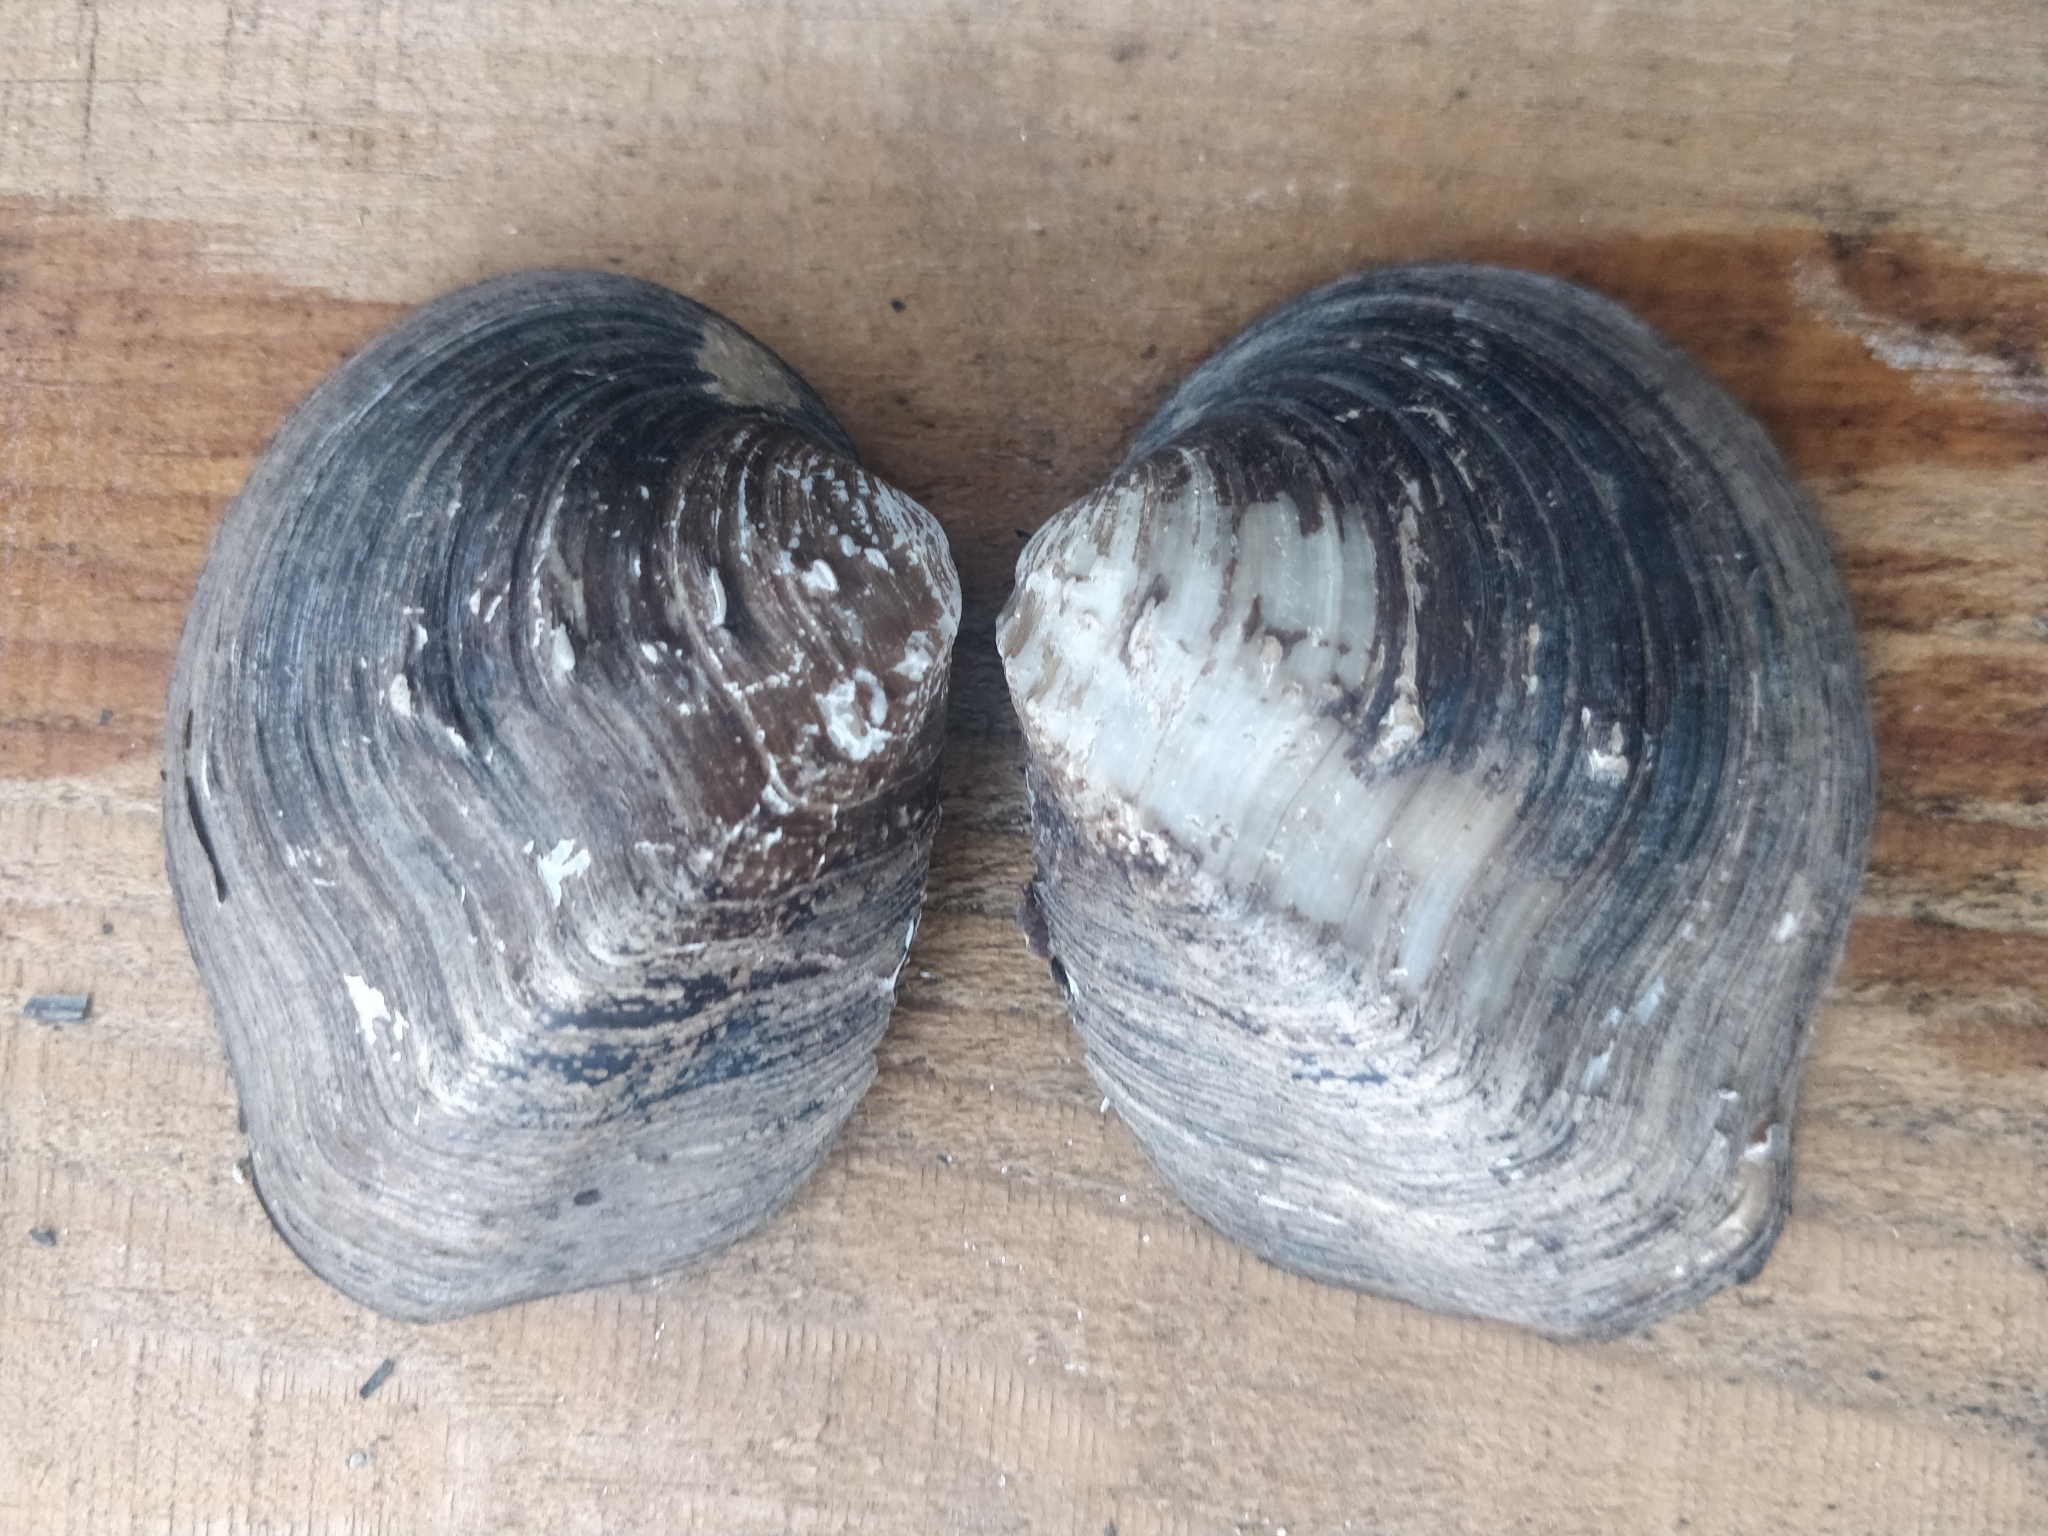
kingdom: Animalia
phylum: Mollusca
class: Bivalvia
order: Unionida
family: Unionidae
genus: Quadrula
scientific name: Quadrula quadrula
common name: Mapleleaf
